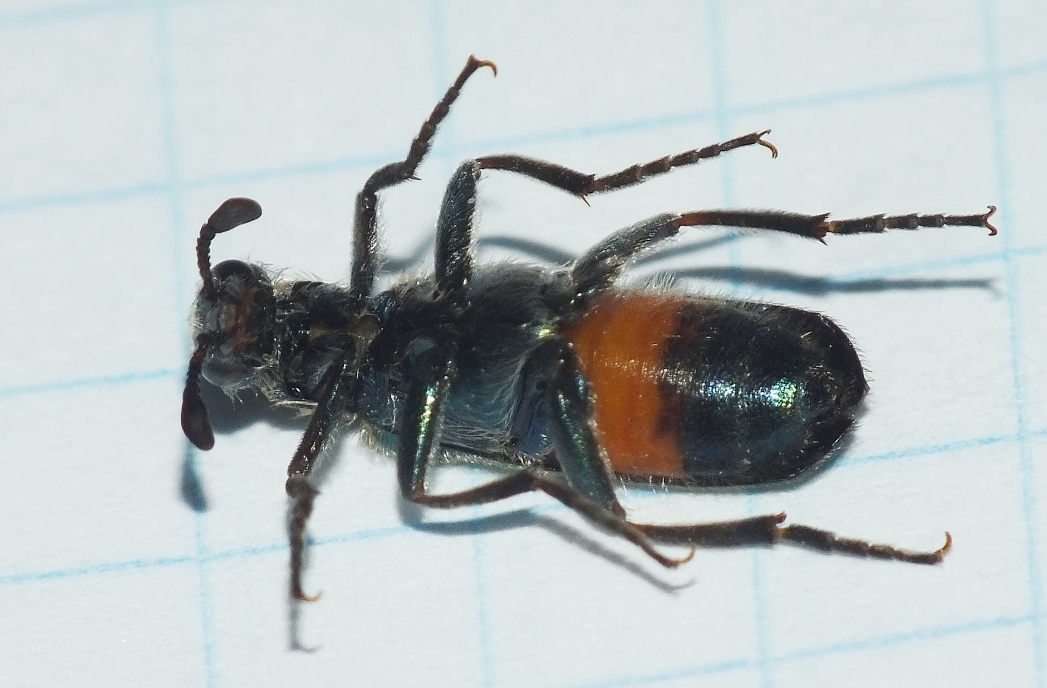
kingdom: Animalia
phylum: Arthropoda
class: Insecta
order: Coleoptera
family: Meloidae
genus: Cerocoma
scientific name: Cerocoma schreberi
